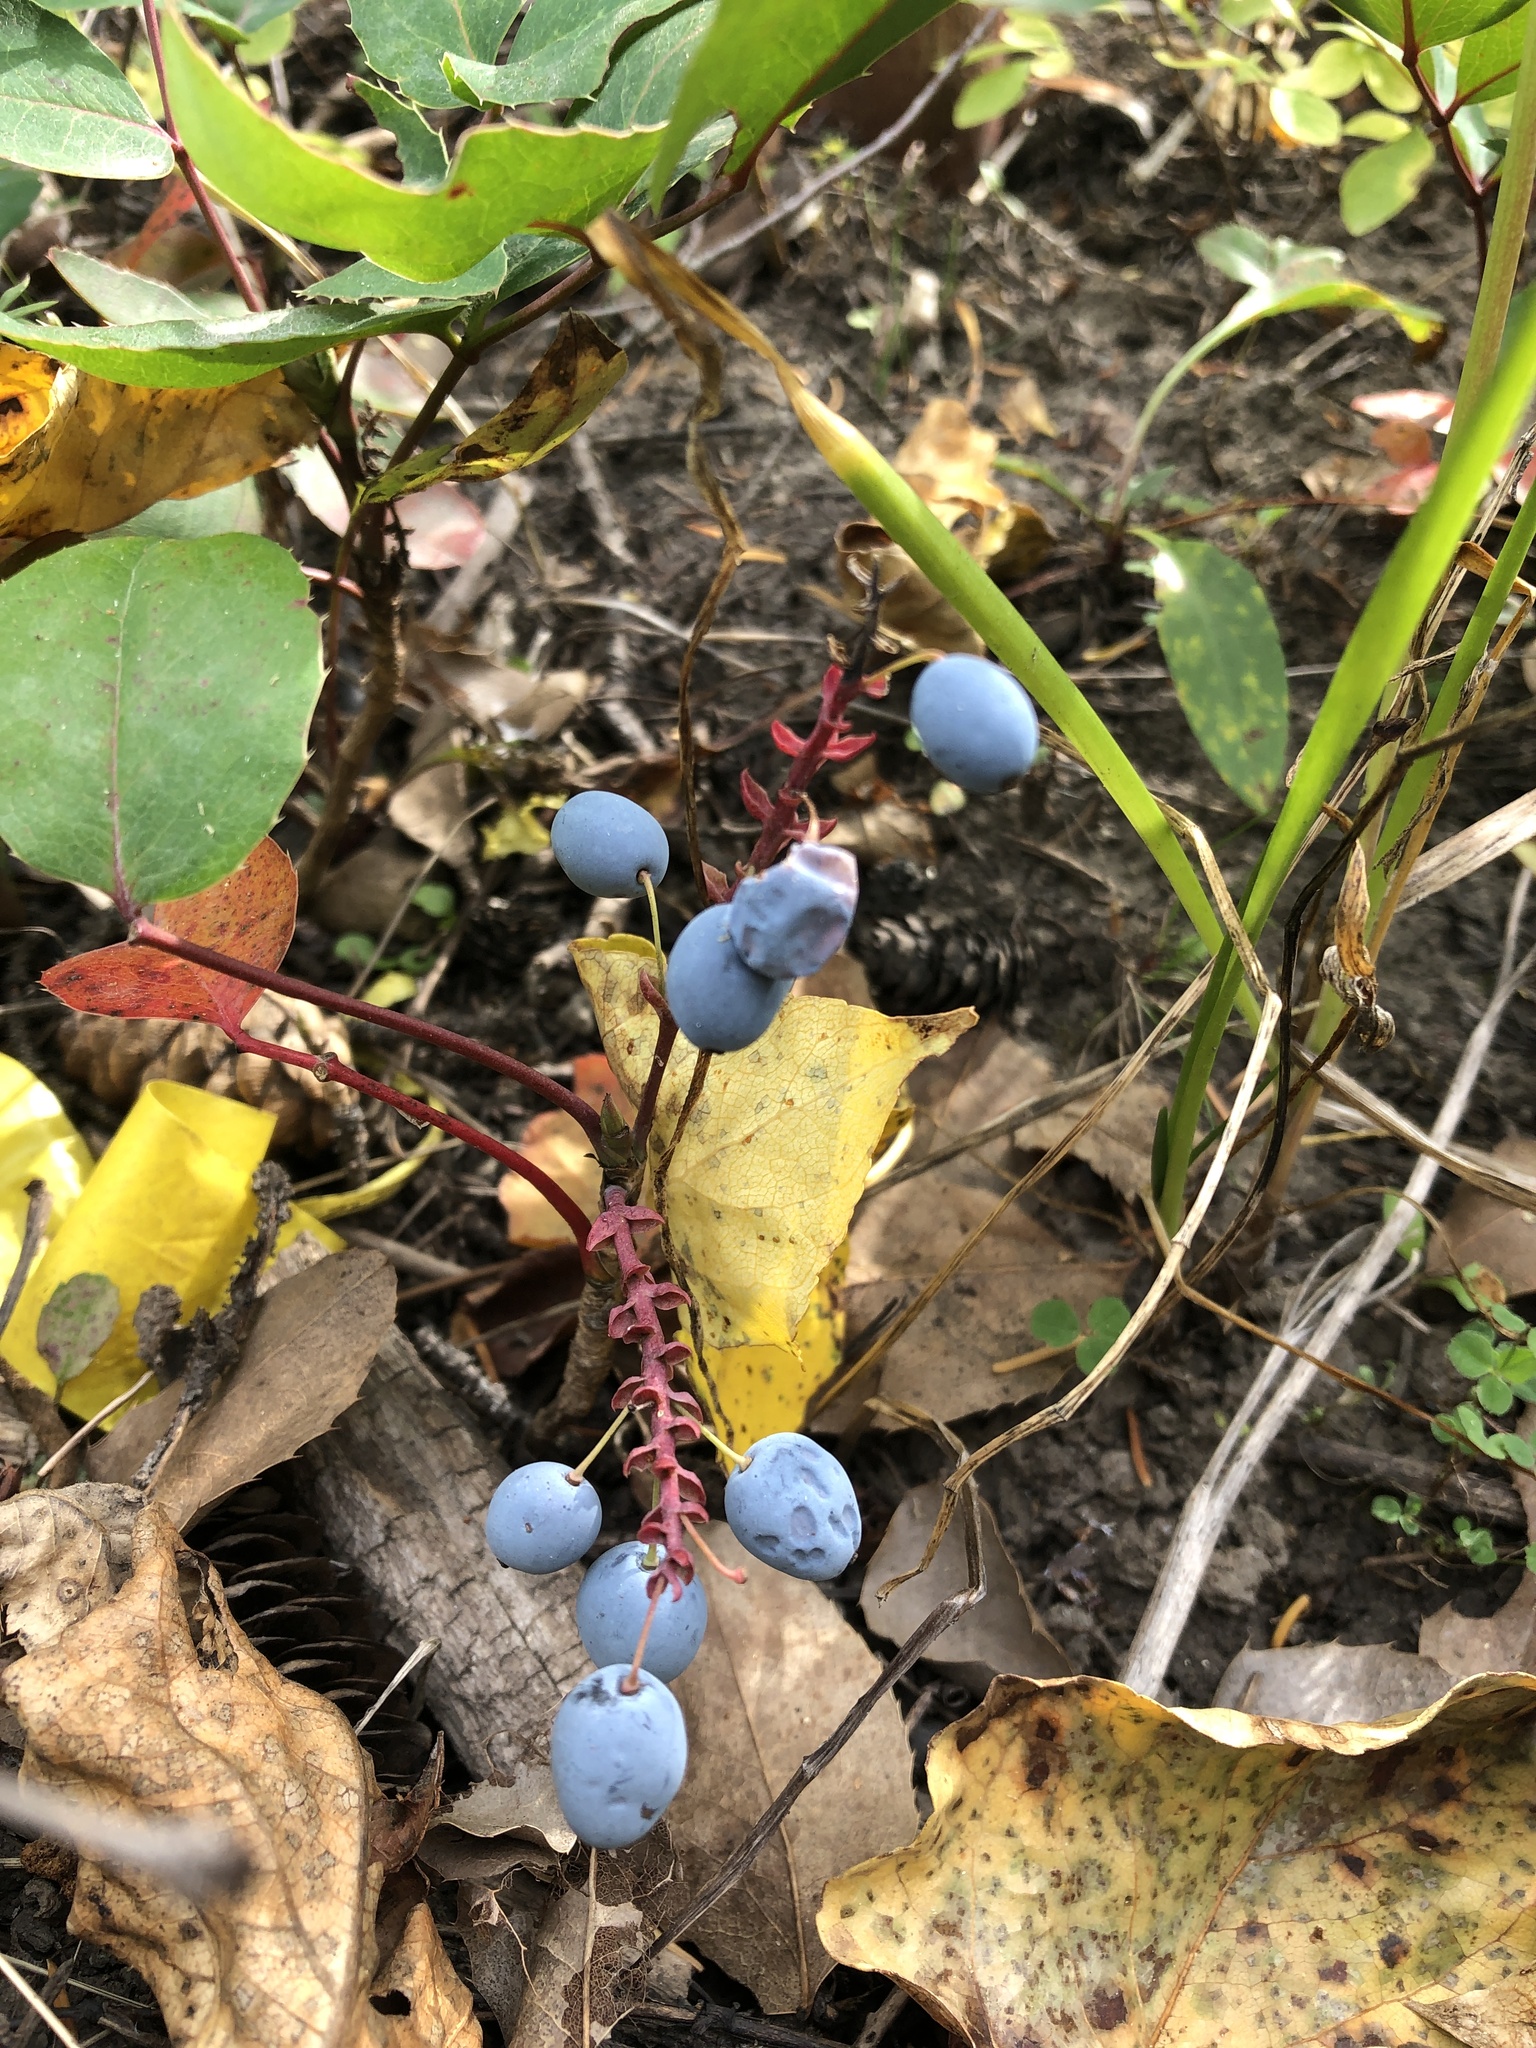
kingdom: Plantae
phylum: Tracheophyta
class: Magnoliopsida
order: Ranunculales
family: Berberidaceae
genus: Mahonia
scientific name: Mahonia repens
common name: Creeping oregon-grape
